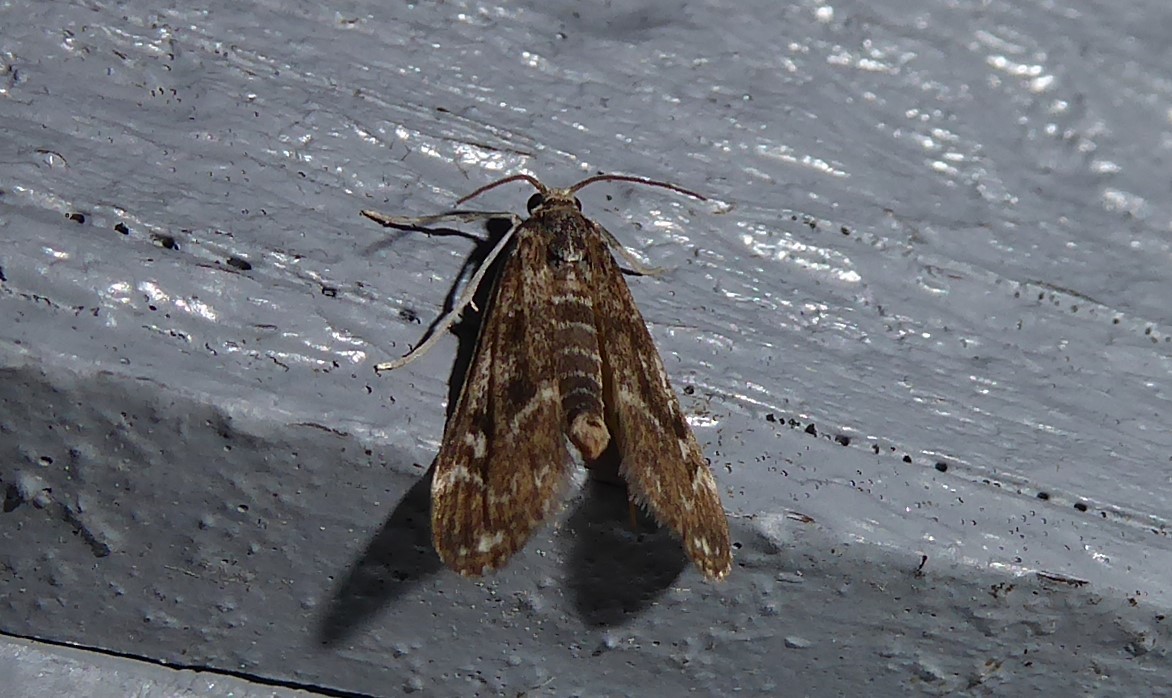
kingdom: Animalia
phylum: Arthropoda
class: Insecta
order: Lepidoptera
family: Crambidae
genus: Hygraula
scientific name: Hygraula nitens
